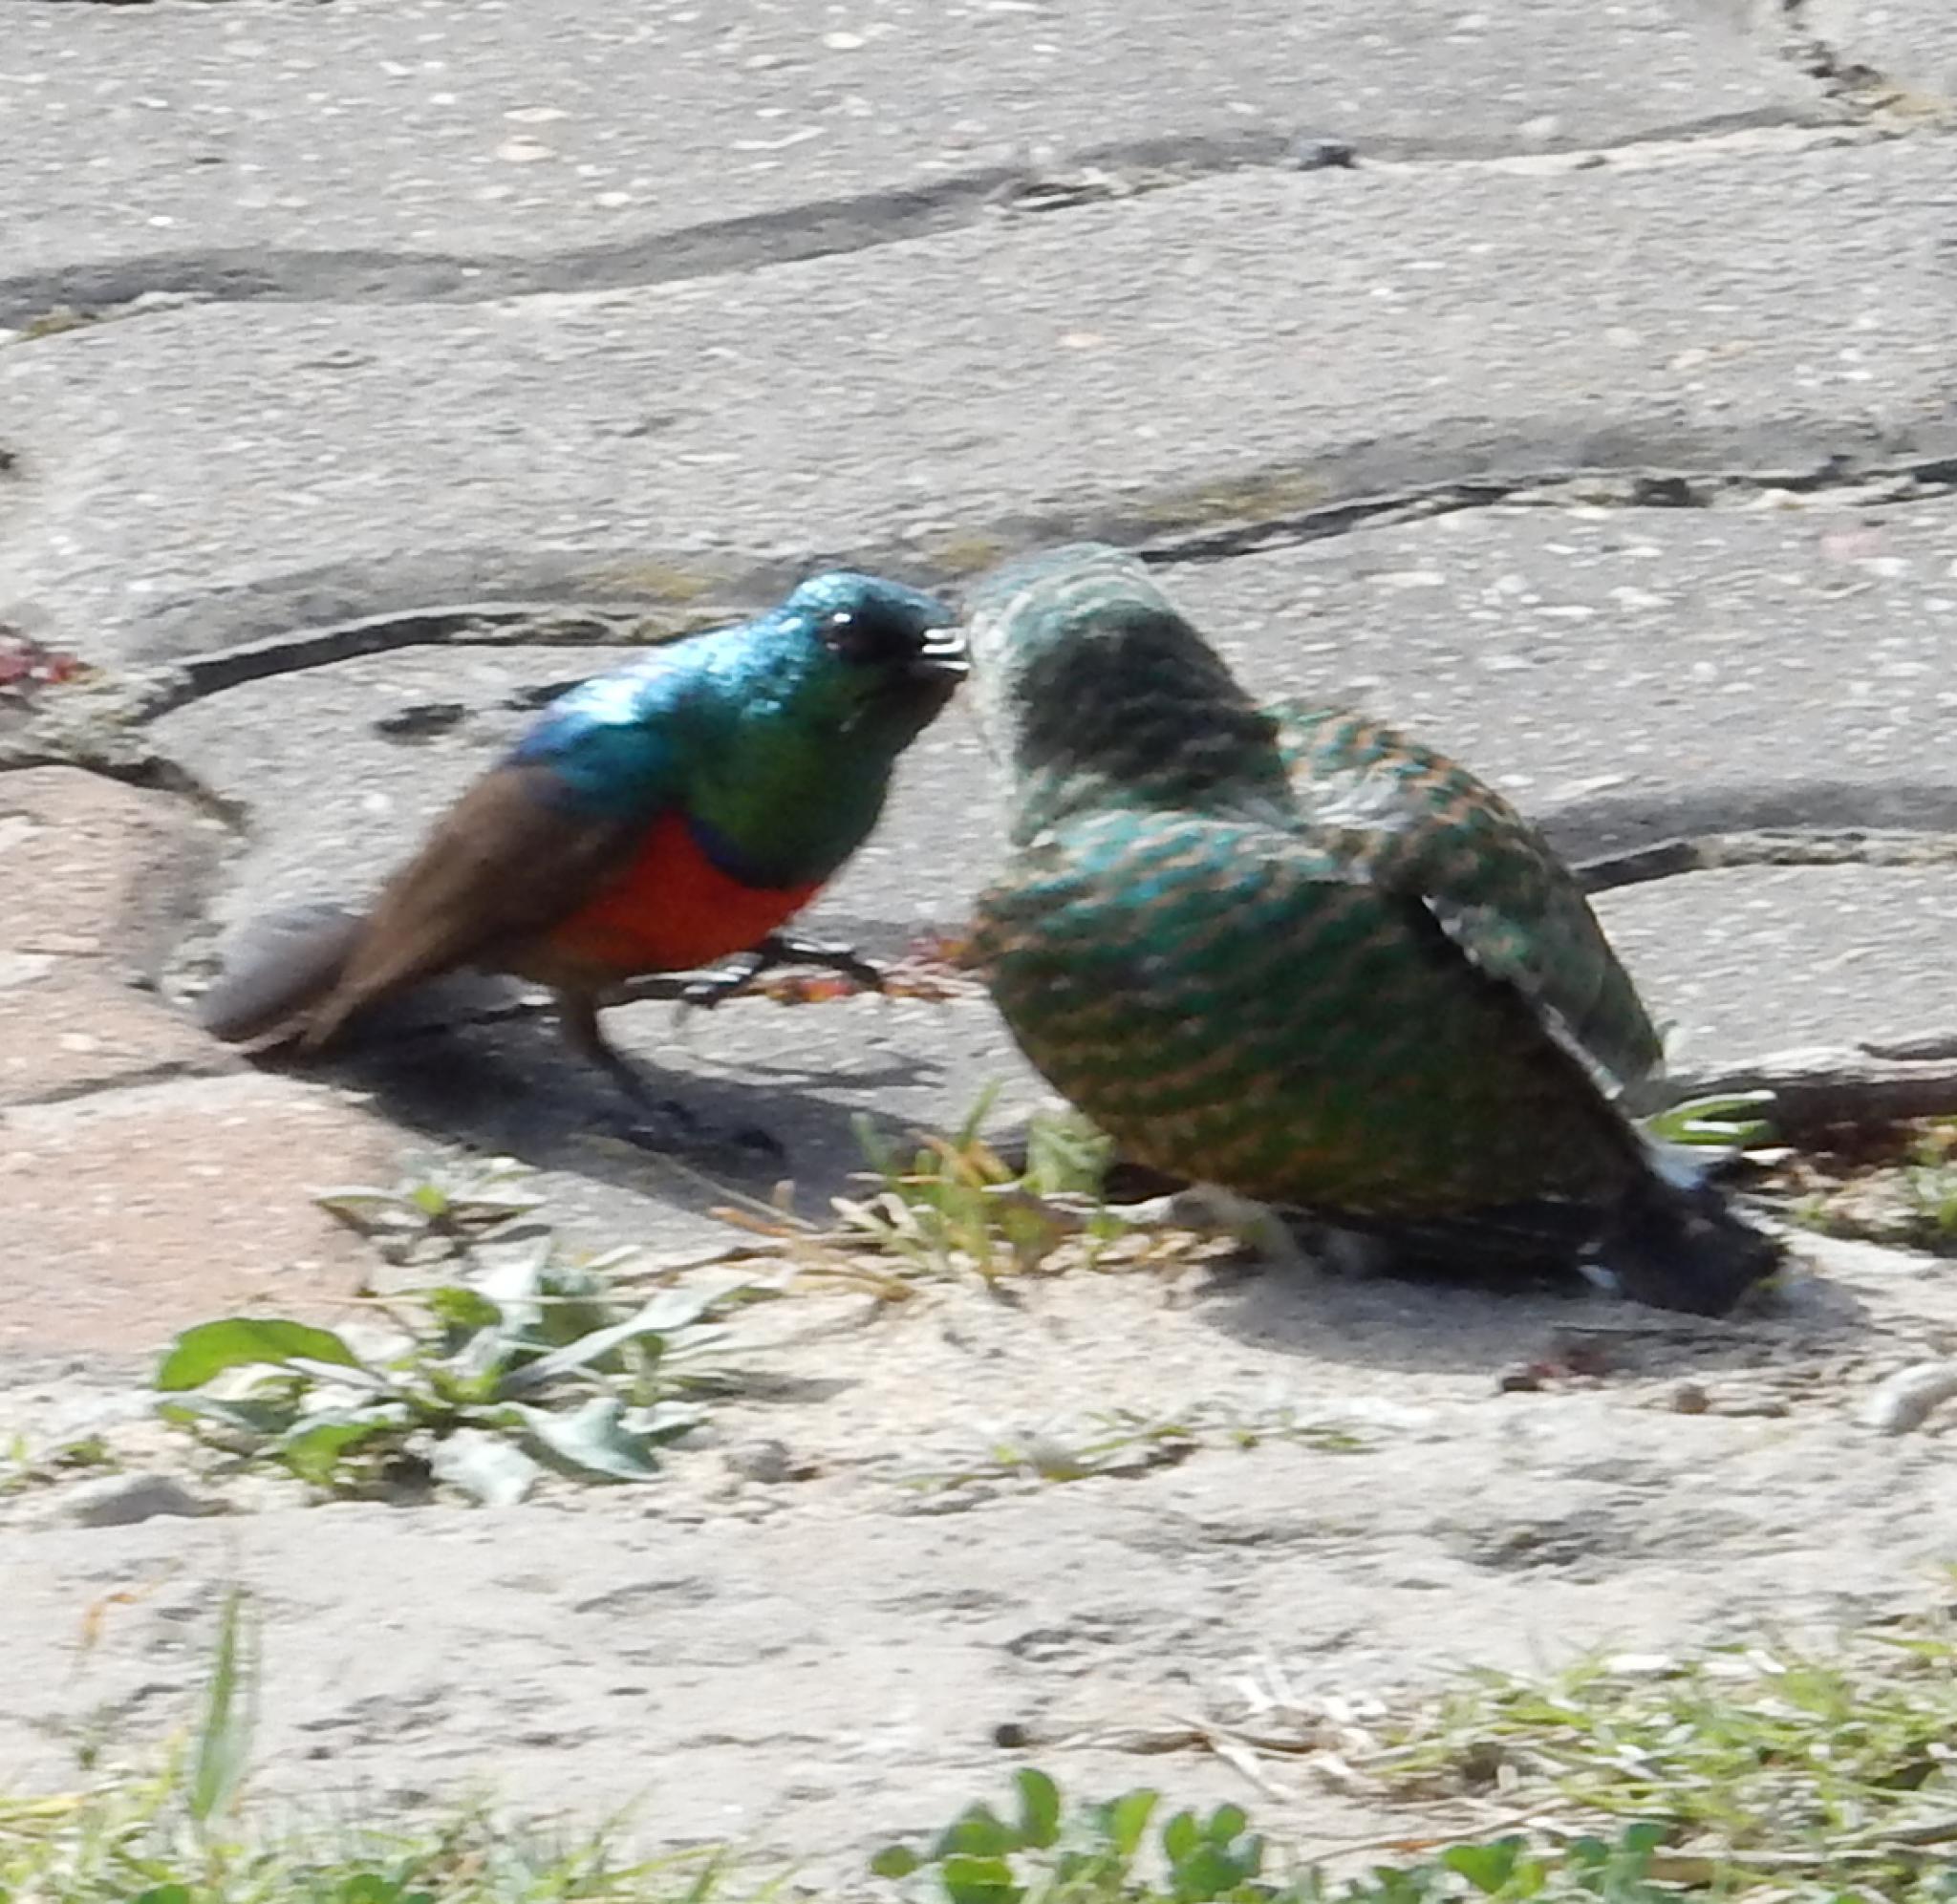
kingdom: Animalia
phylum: Chordata
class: Aves
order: Passeriformes
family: Nectariniidae
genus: Cinnyris
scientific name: Cinnyris afer
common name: Greater double-collared sunbird
